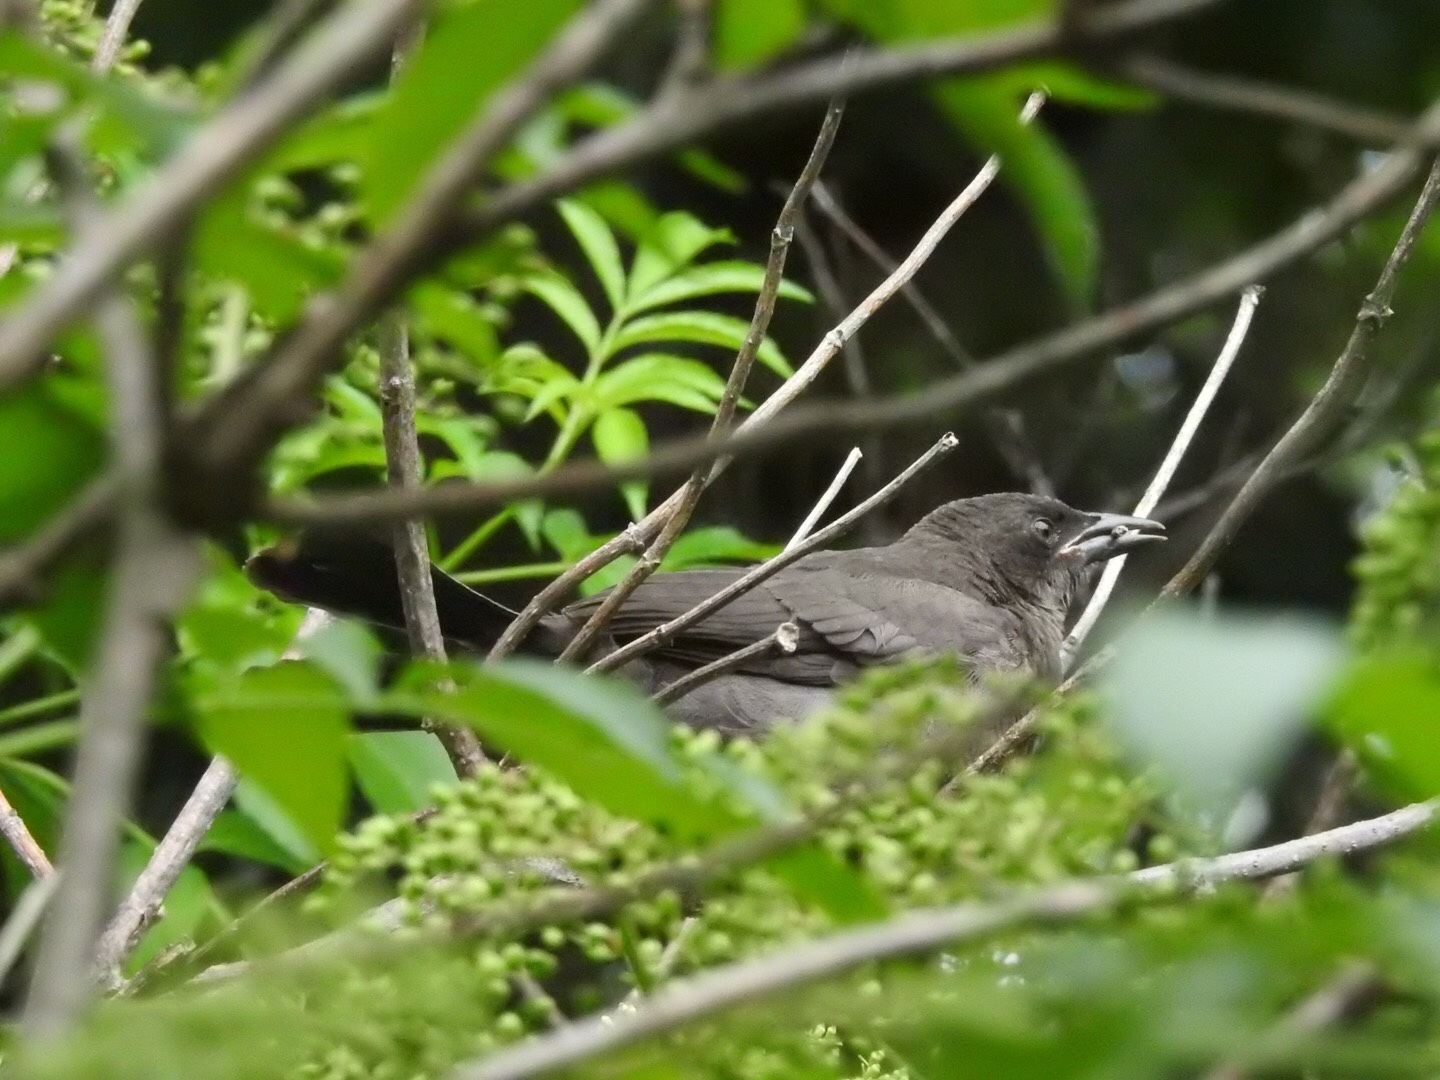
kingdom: Animalia
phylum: Chordata
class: Aves
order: Passeriformes
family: Corvidae
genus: Corvus
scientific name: Corvus brachyrhynchos
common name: American crow
